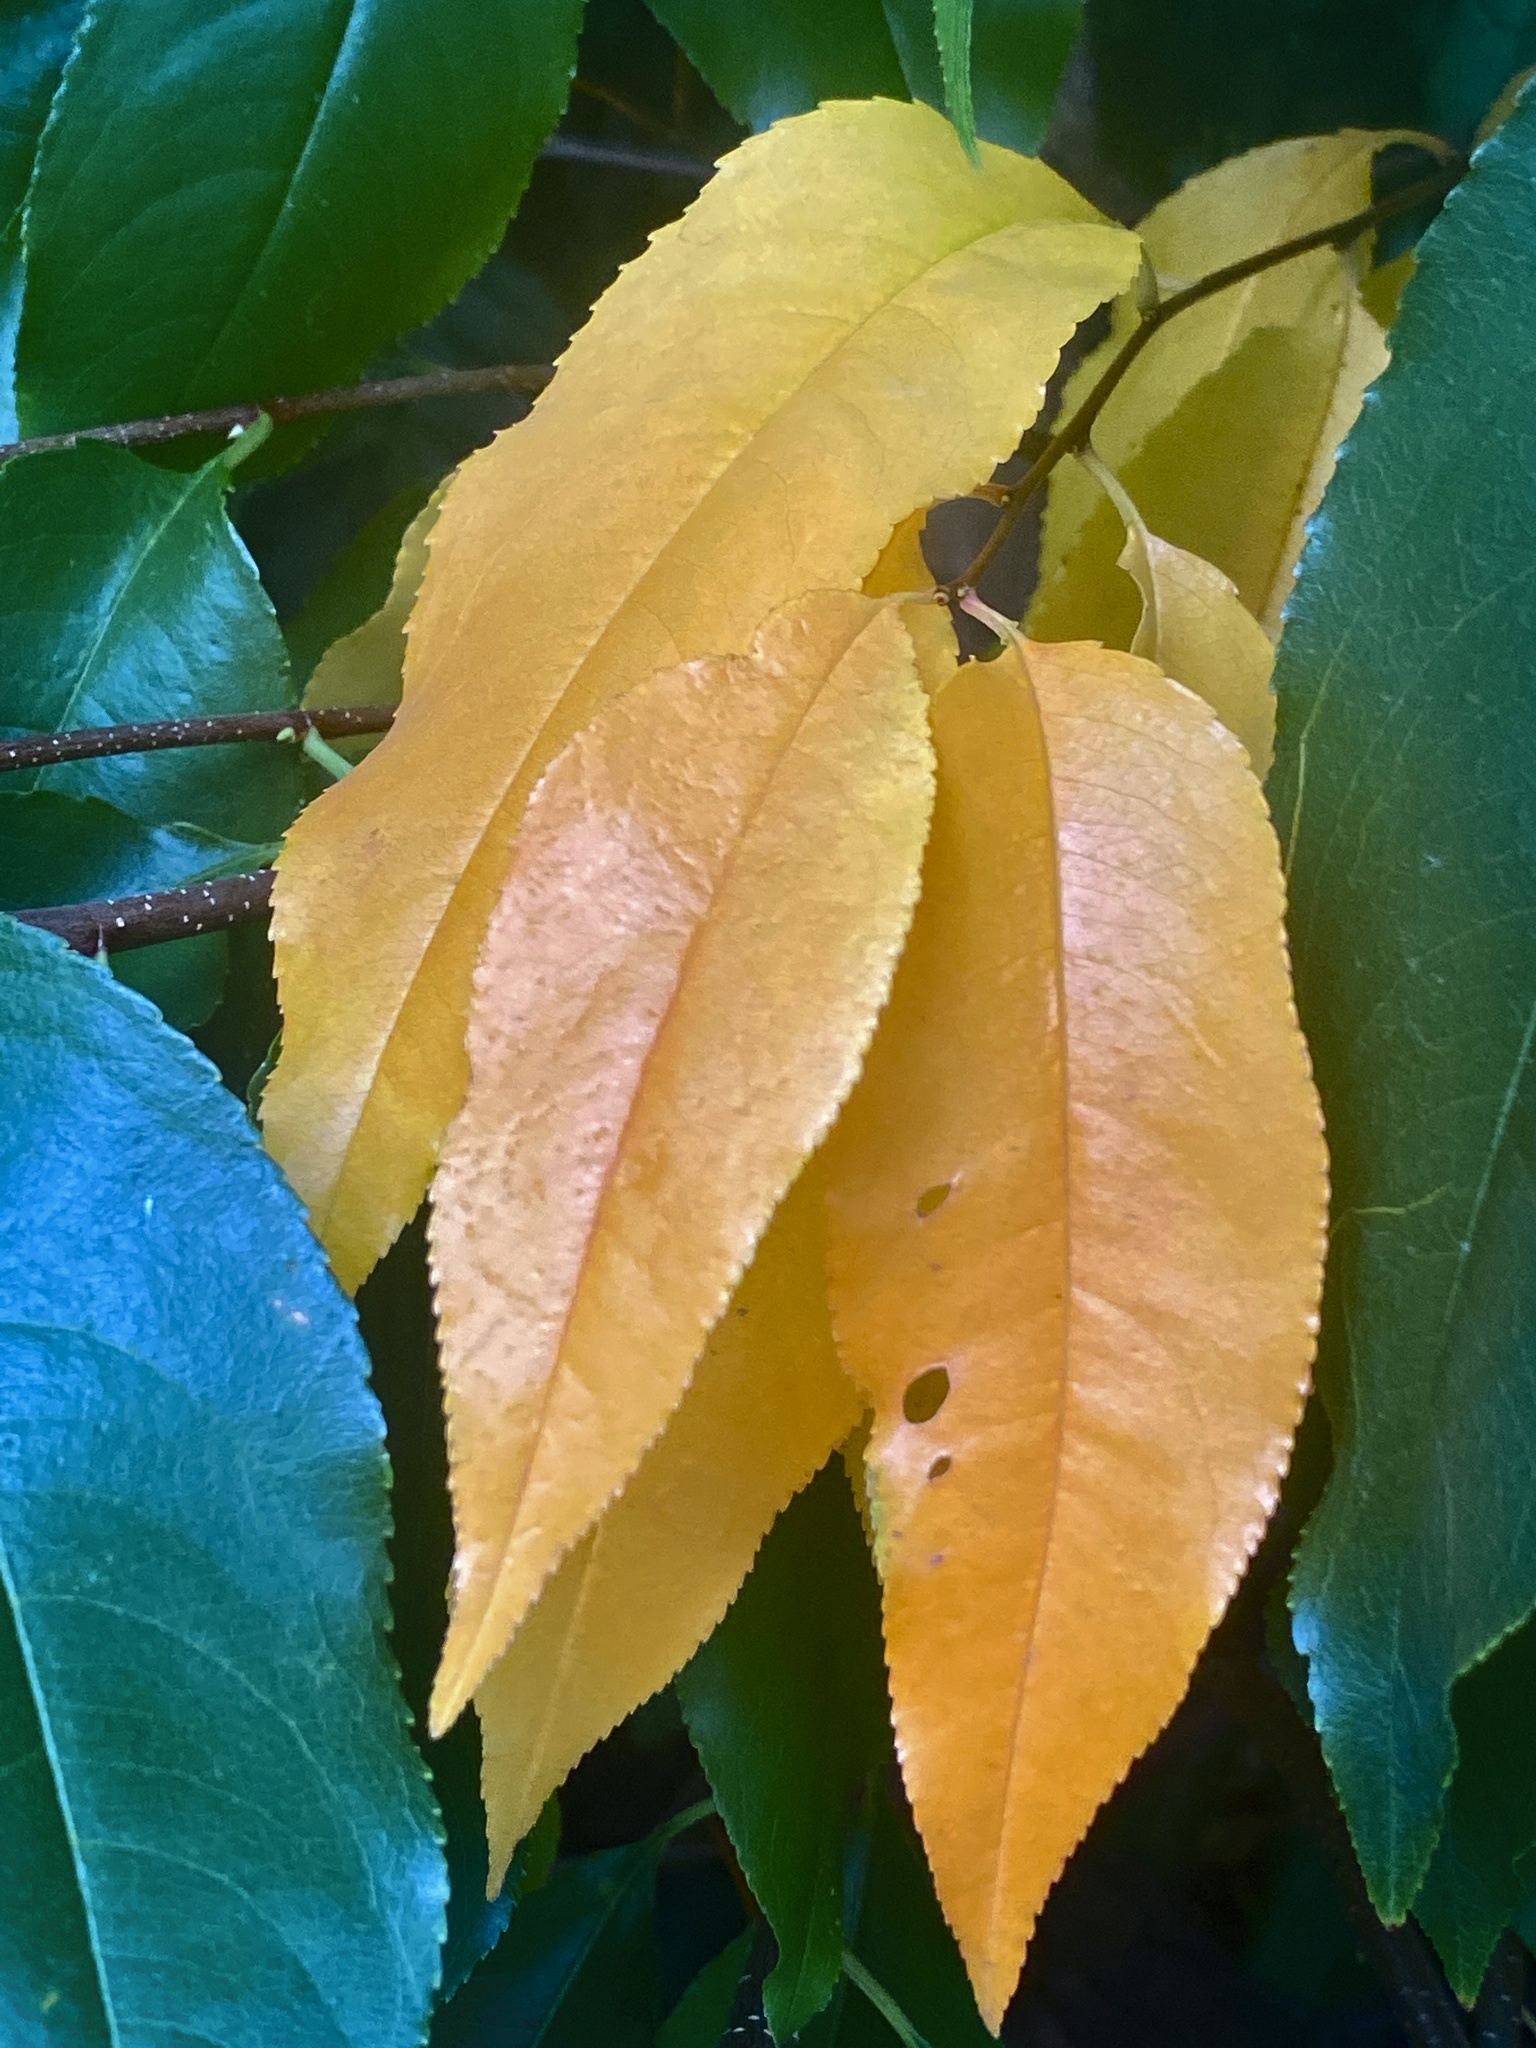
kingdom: Plantae
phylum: Tracheophyta
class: Magnoliopsida
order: Rosales
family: Rosaceae
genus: Prunus
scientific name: Prunus serotina
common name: Black cherry
